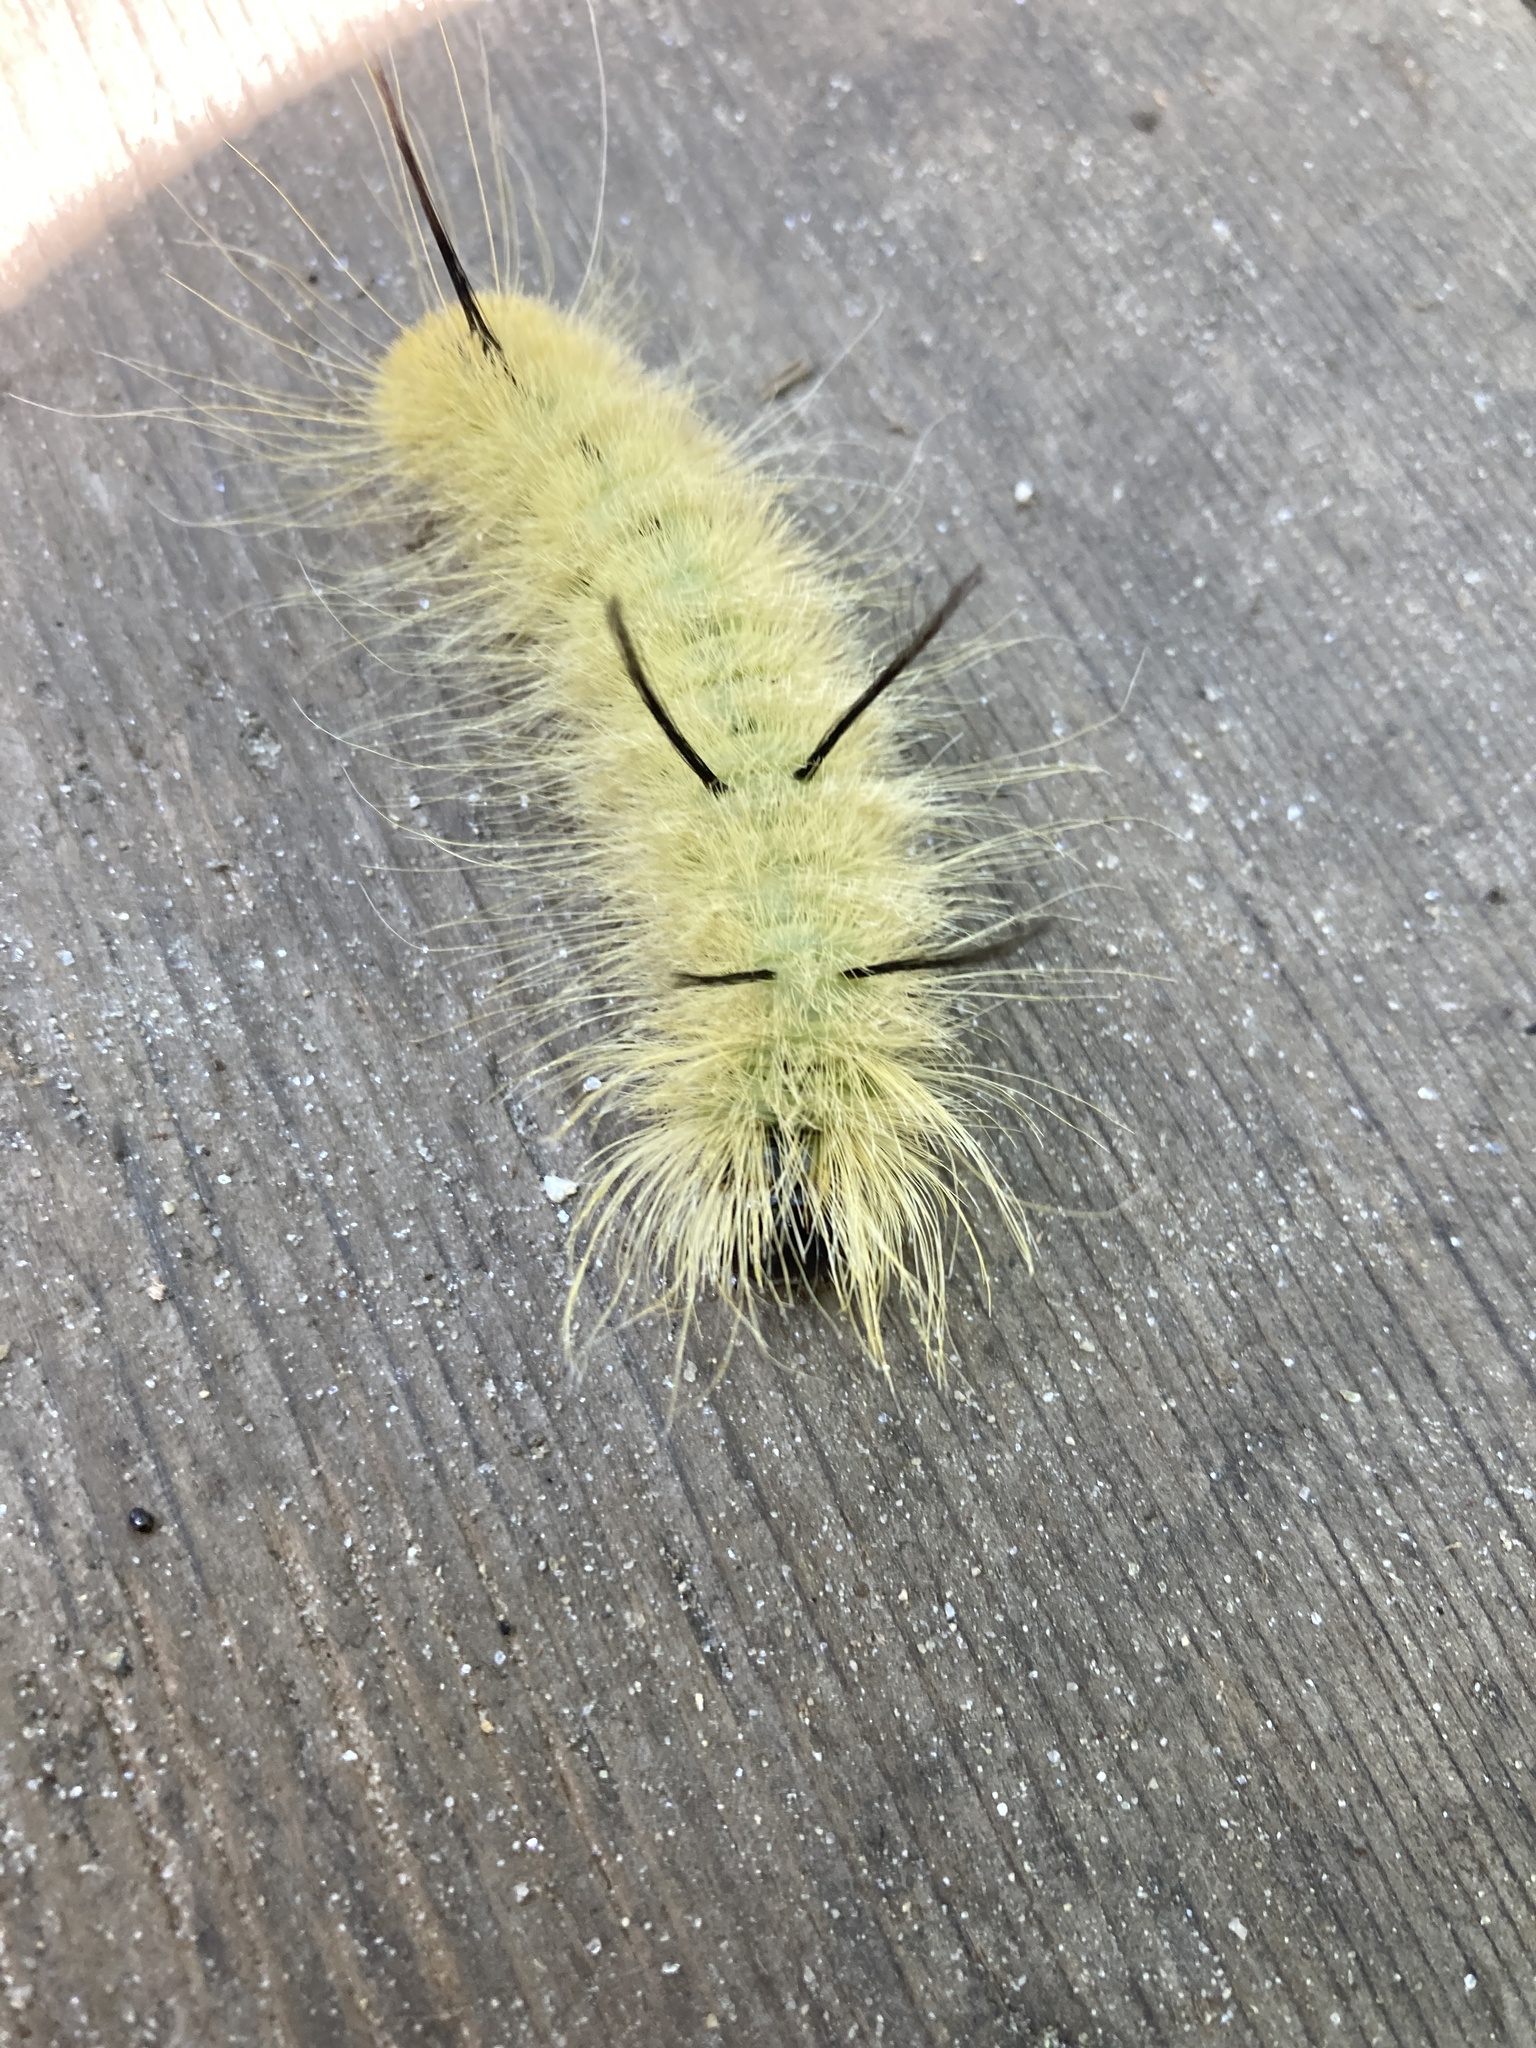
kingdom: Animalia
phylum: Arthropoda
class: Insecta
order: Lepidoptera
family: Noctuidae
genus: Acronicta
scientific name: Acronicta americana
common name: American dagger
